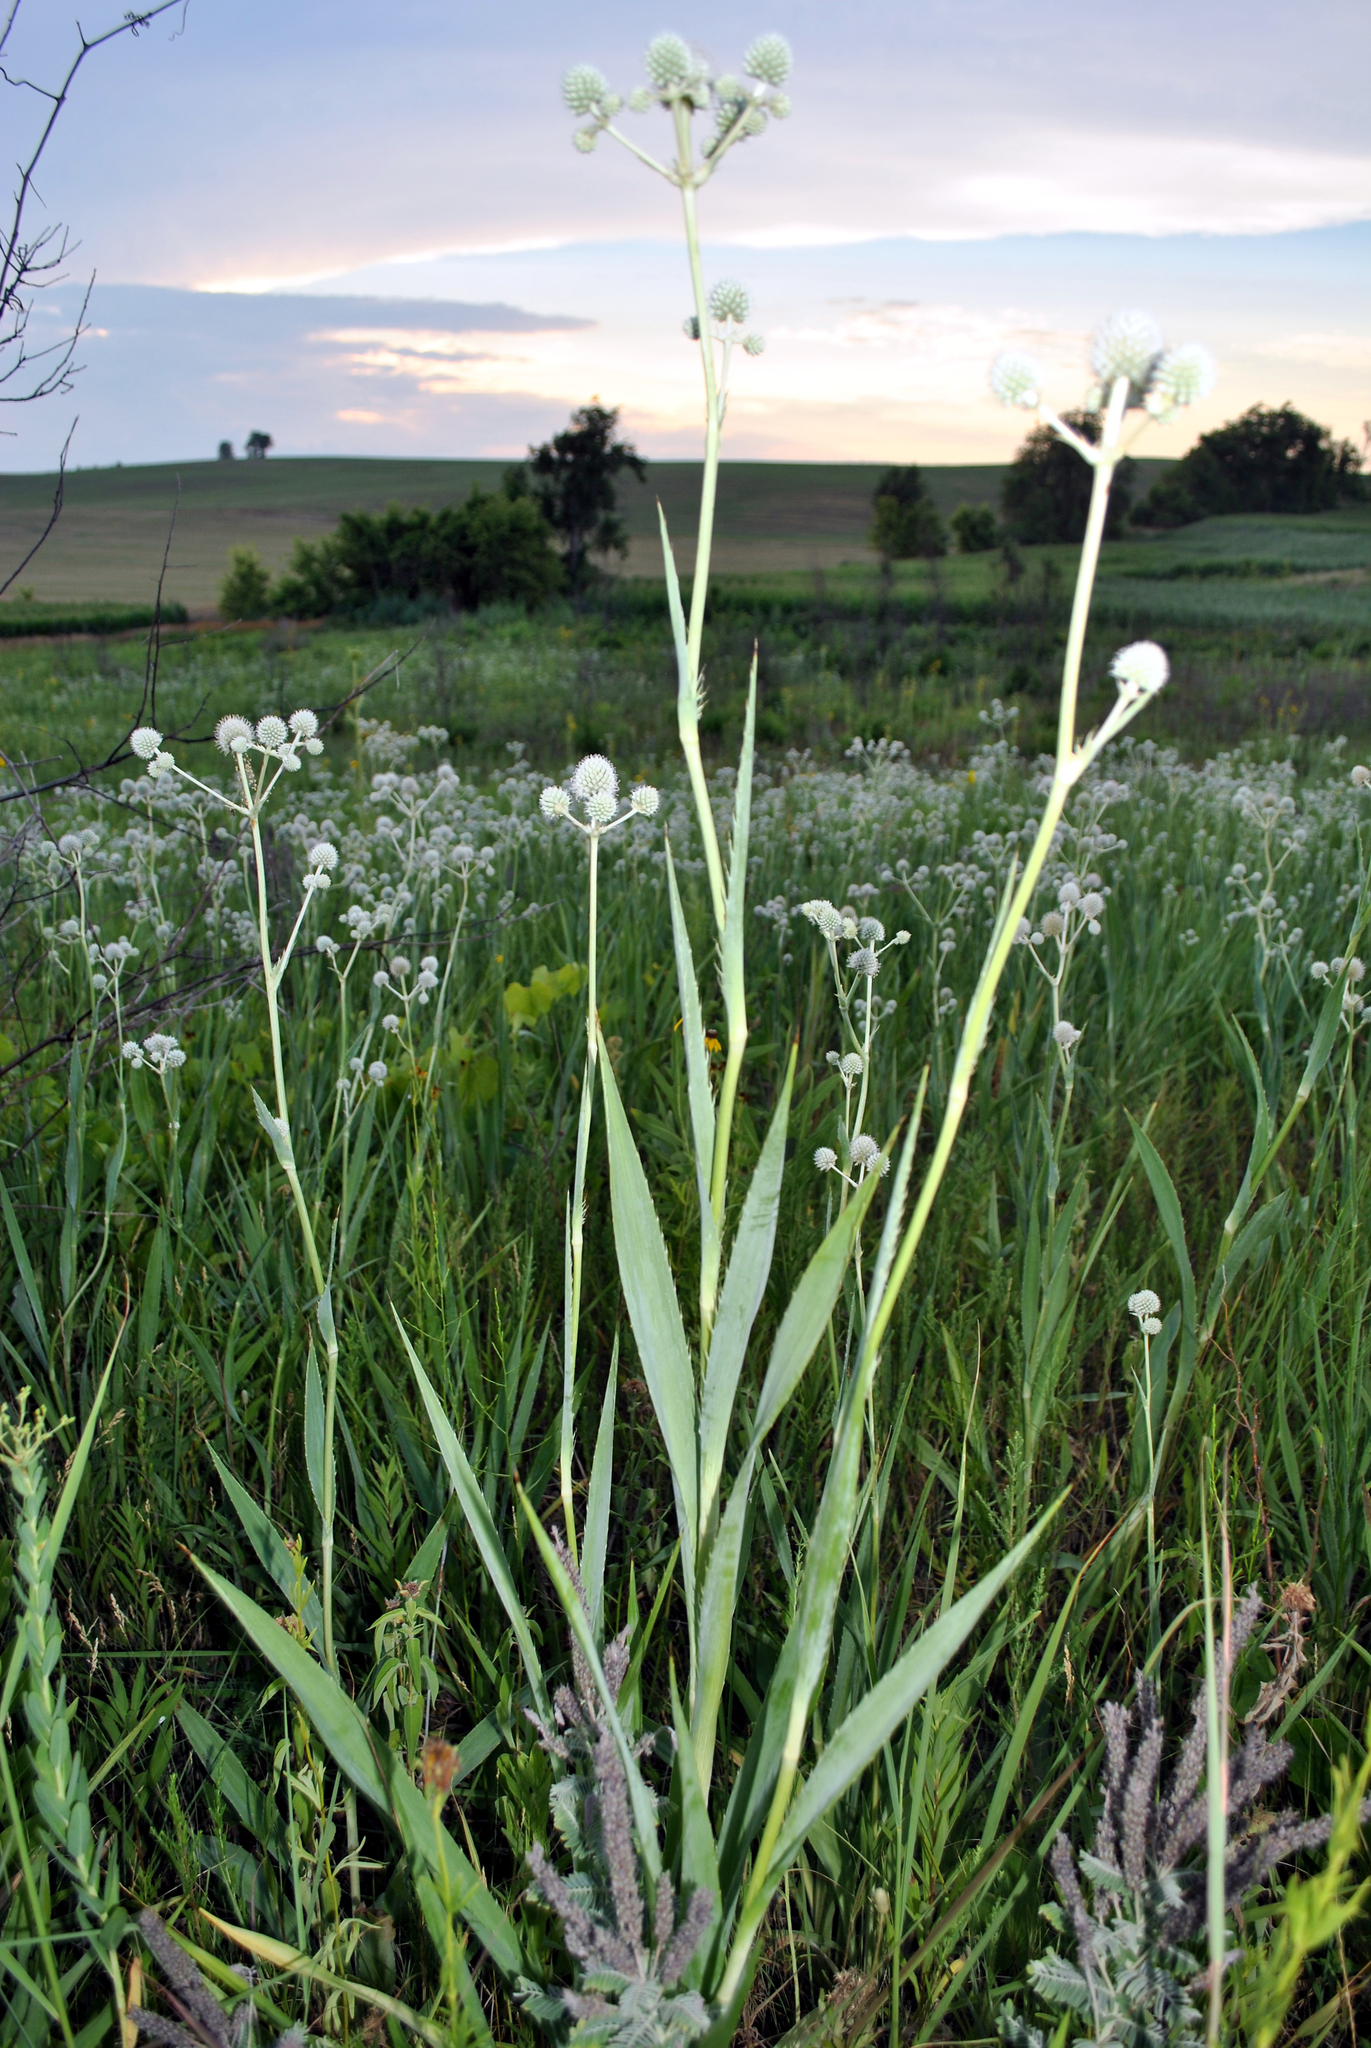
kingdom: Plantae
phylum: Tracheophyta
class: Magnoliopsida
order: Apiales
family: Apiaceae
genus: Eryngium
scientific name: Eryngium yuccifolium
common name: Button eryngo
